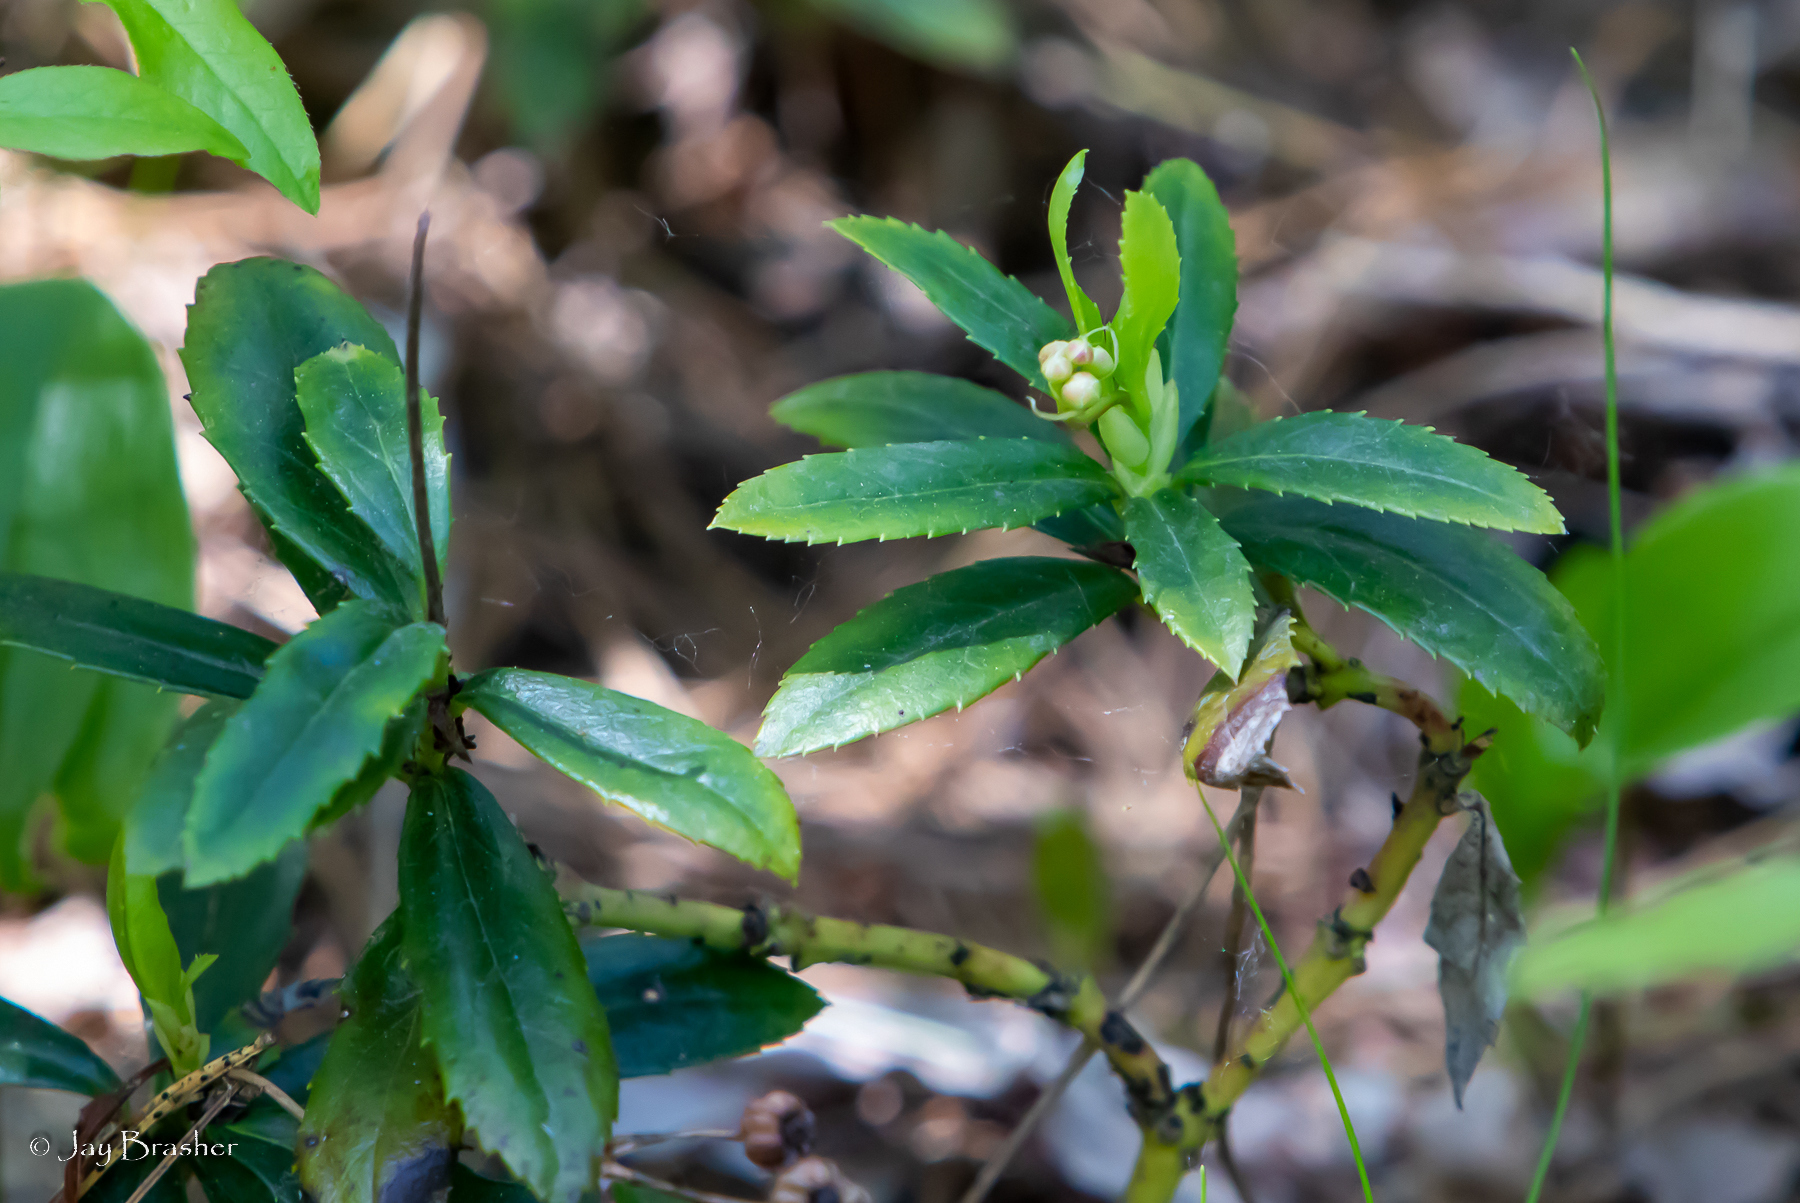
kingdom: Plantae
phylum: Tracheophyta
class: Magnoliopsida
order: Ericales
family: Ericaceae
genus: Chimaphila
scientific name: Chimaphila umbellata
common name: Pipsissewa
